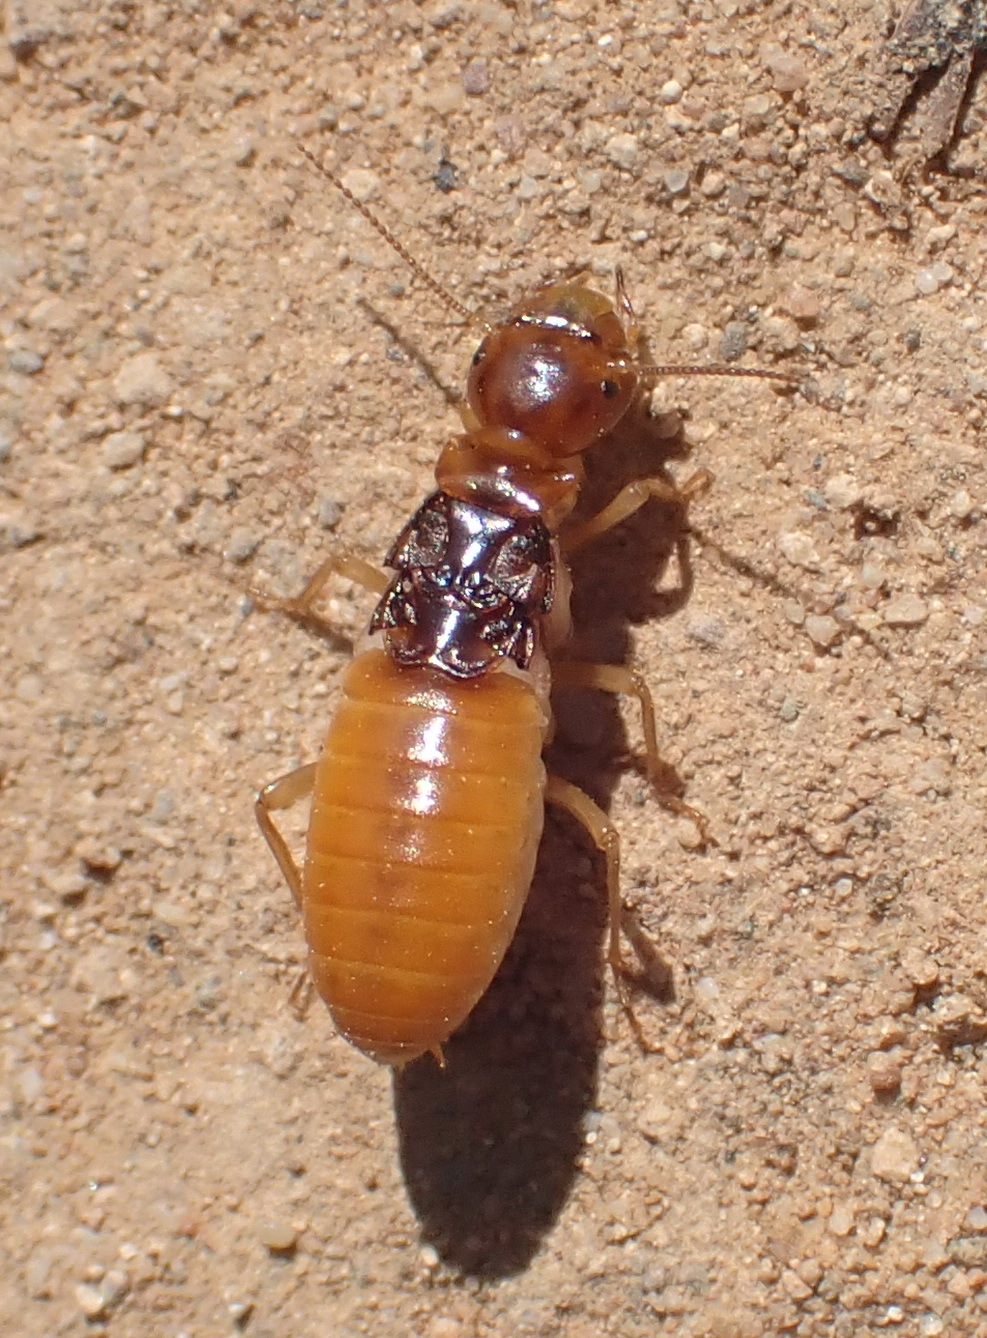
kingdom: Animalia
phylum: Arthropoda
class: Insecta
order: Blattodea
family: Hodotermitidae
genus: Microhodotermes
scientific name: Microhodotermes viator
